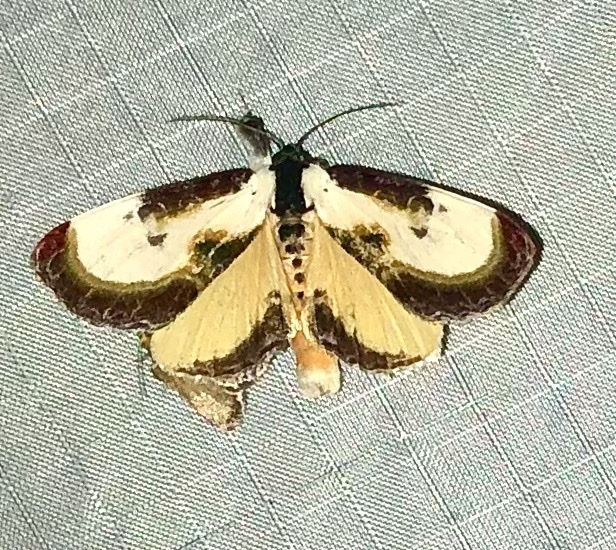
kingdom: Animalia
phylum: Arthropoda
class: Insecta
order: Lepidoptera
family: Noctuidae
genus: Eudryas
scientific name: Eudryas grata
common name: Beautiful wood-nymph
